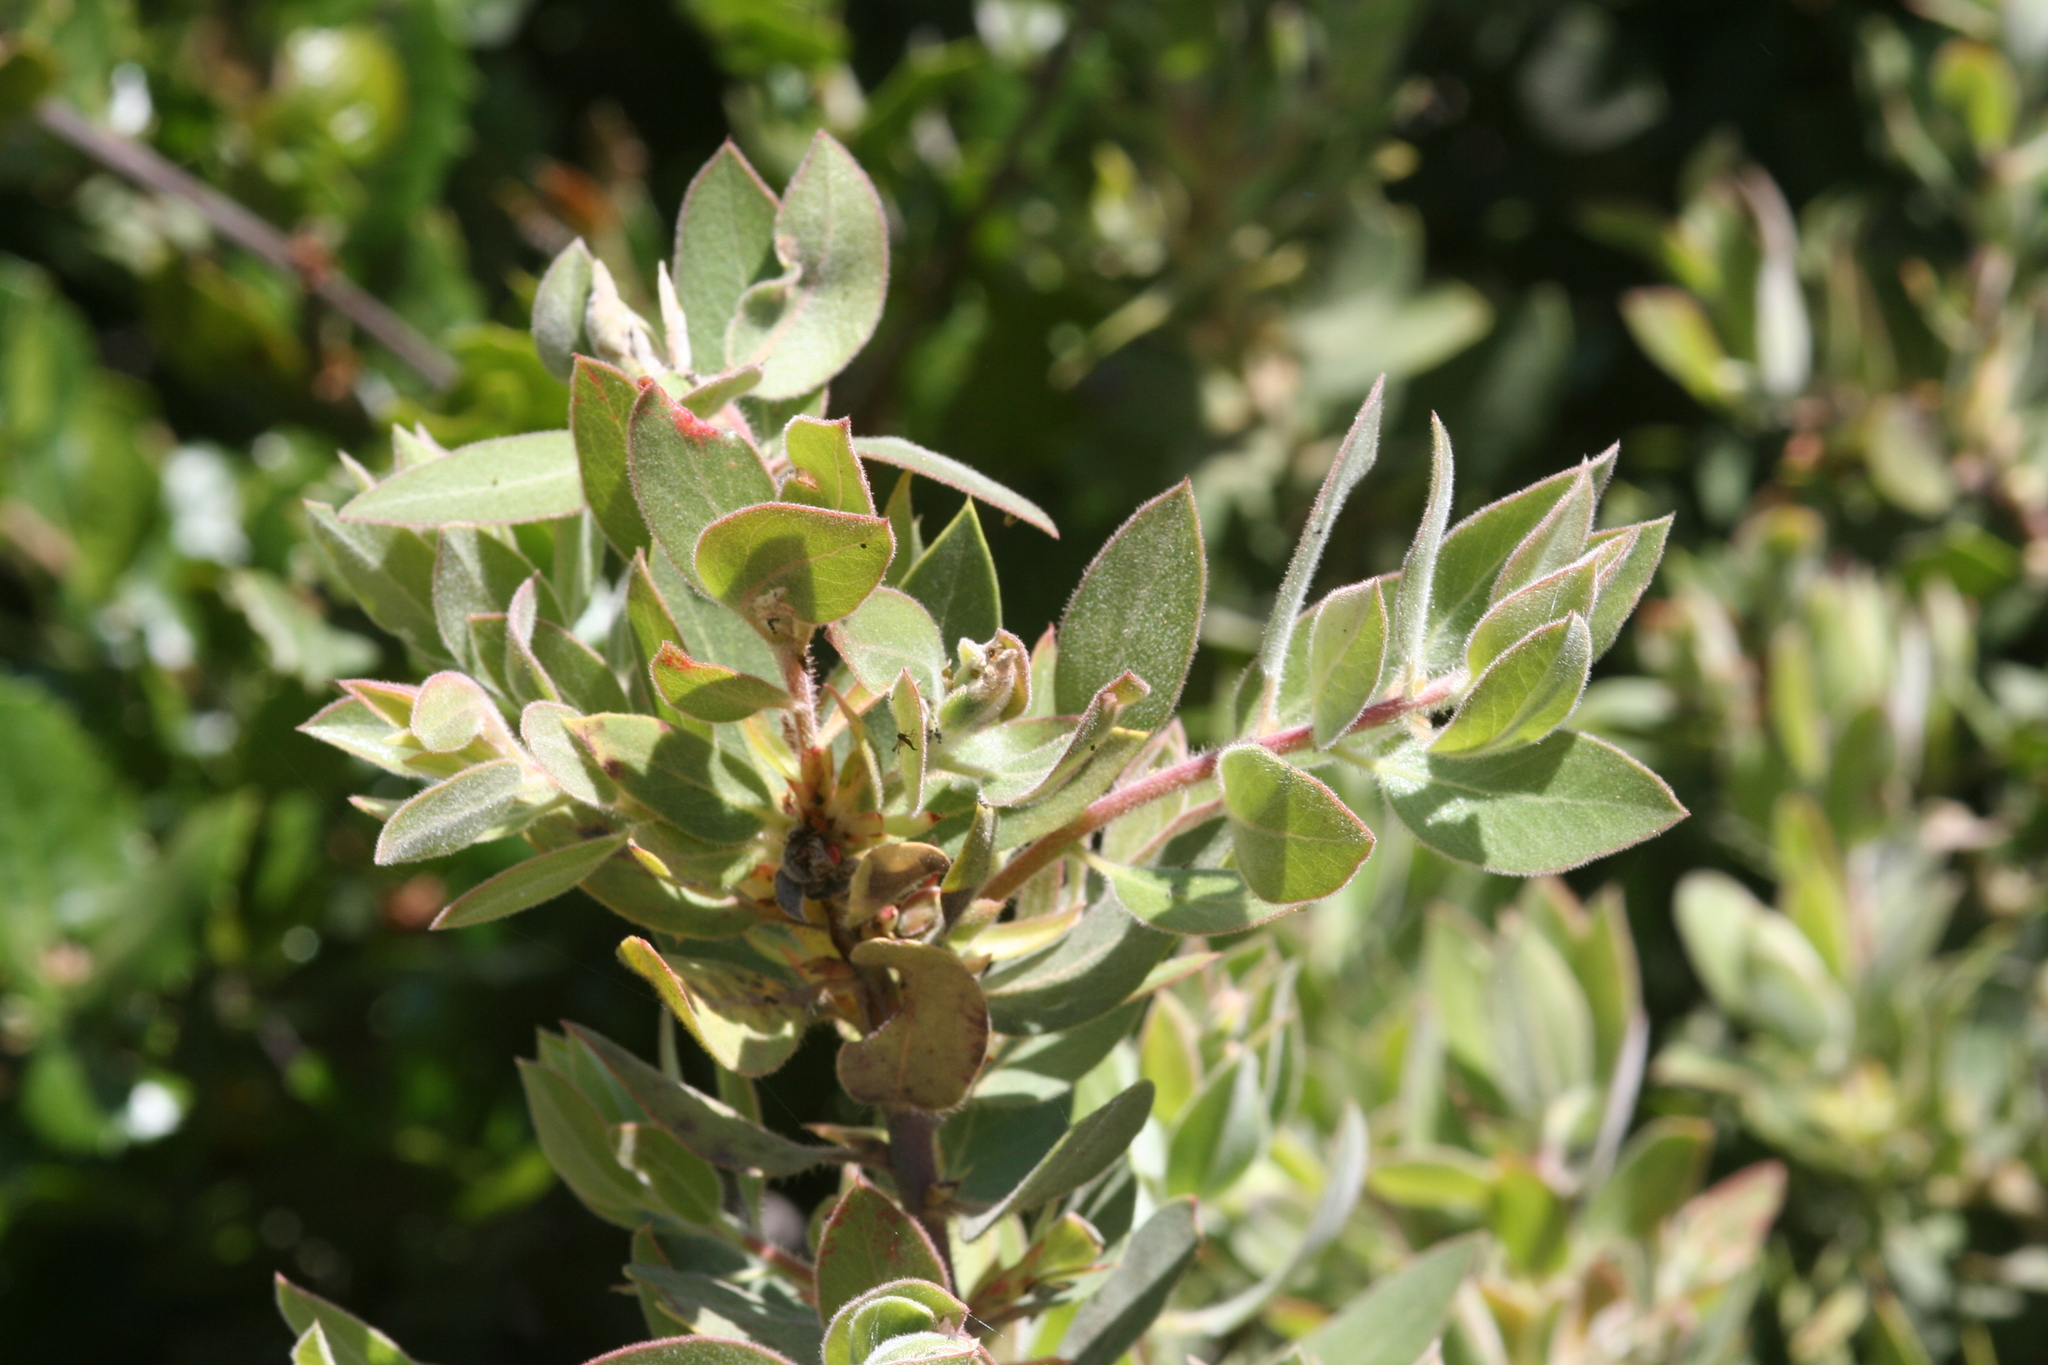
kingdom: Plantae
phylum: Tracheophyta
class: Magnoliopsida
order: Ericales
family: Ericaceae
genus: Arctostaphylos
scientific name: Arctostaphylos glandulosa
